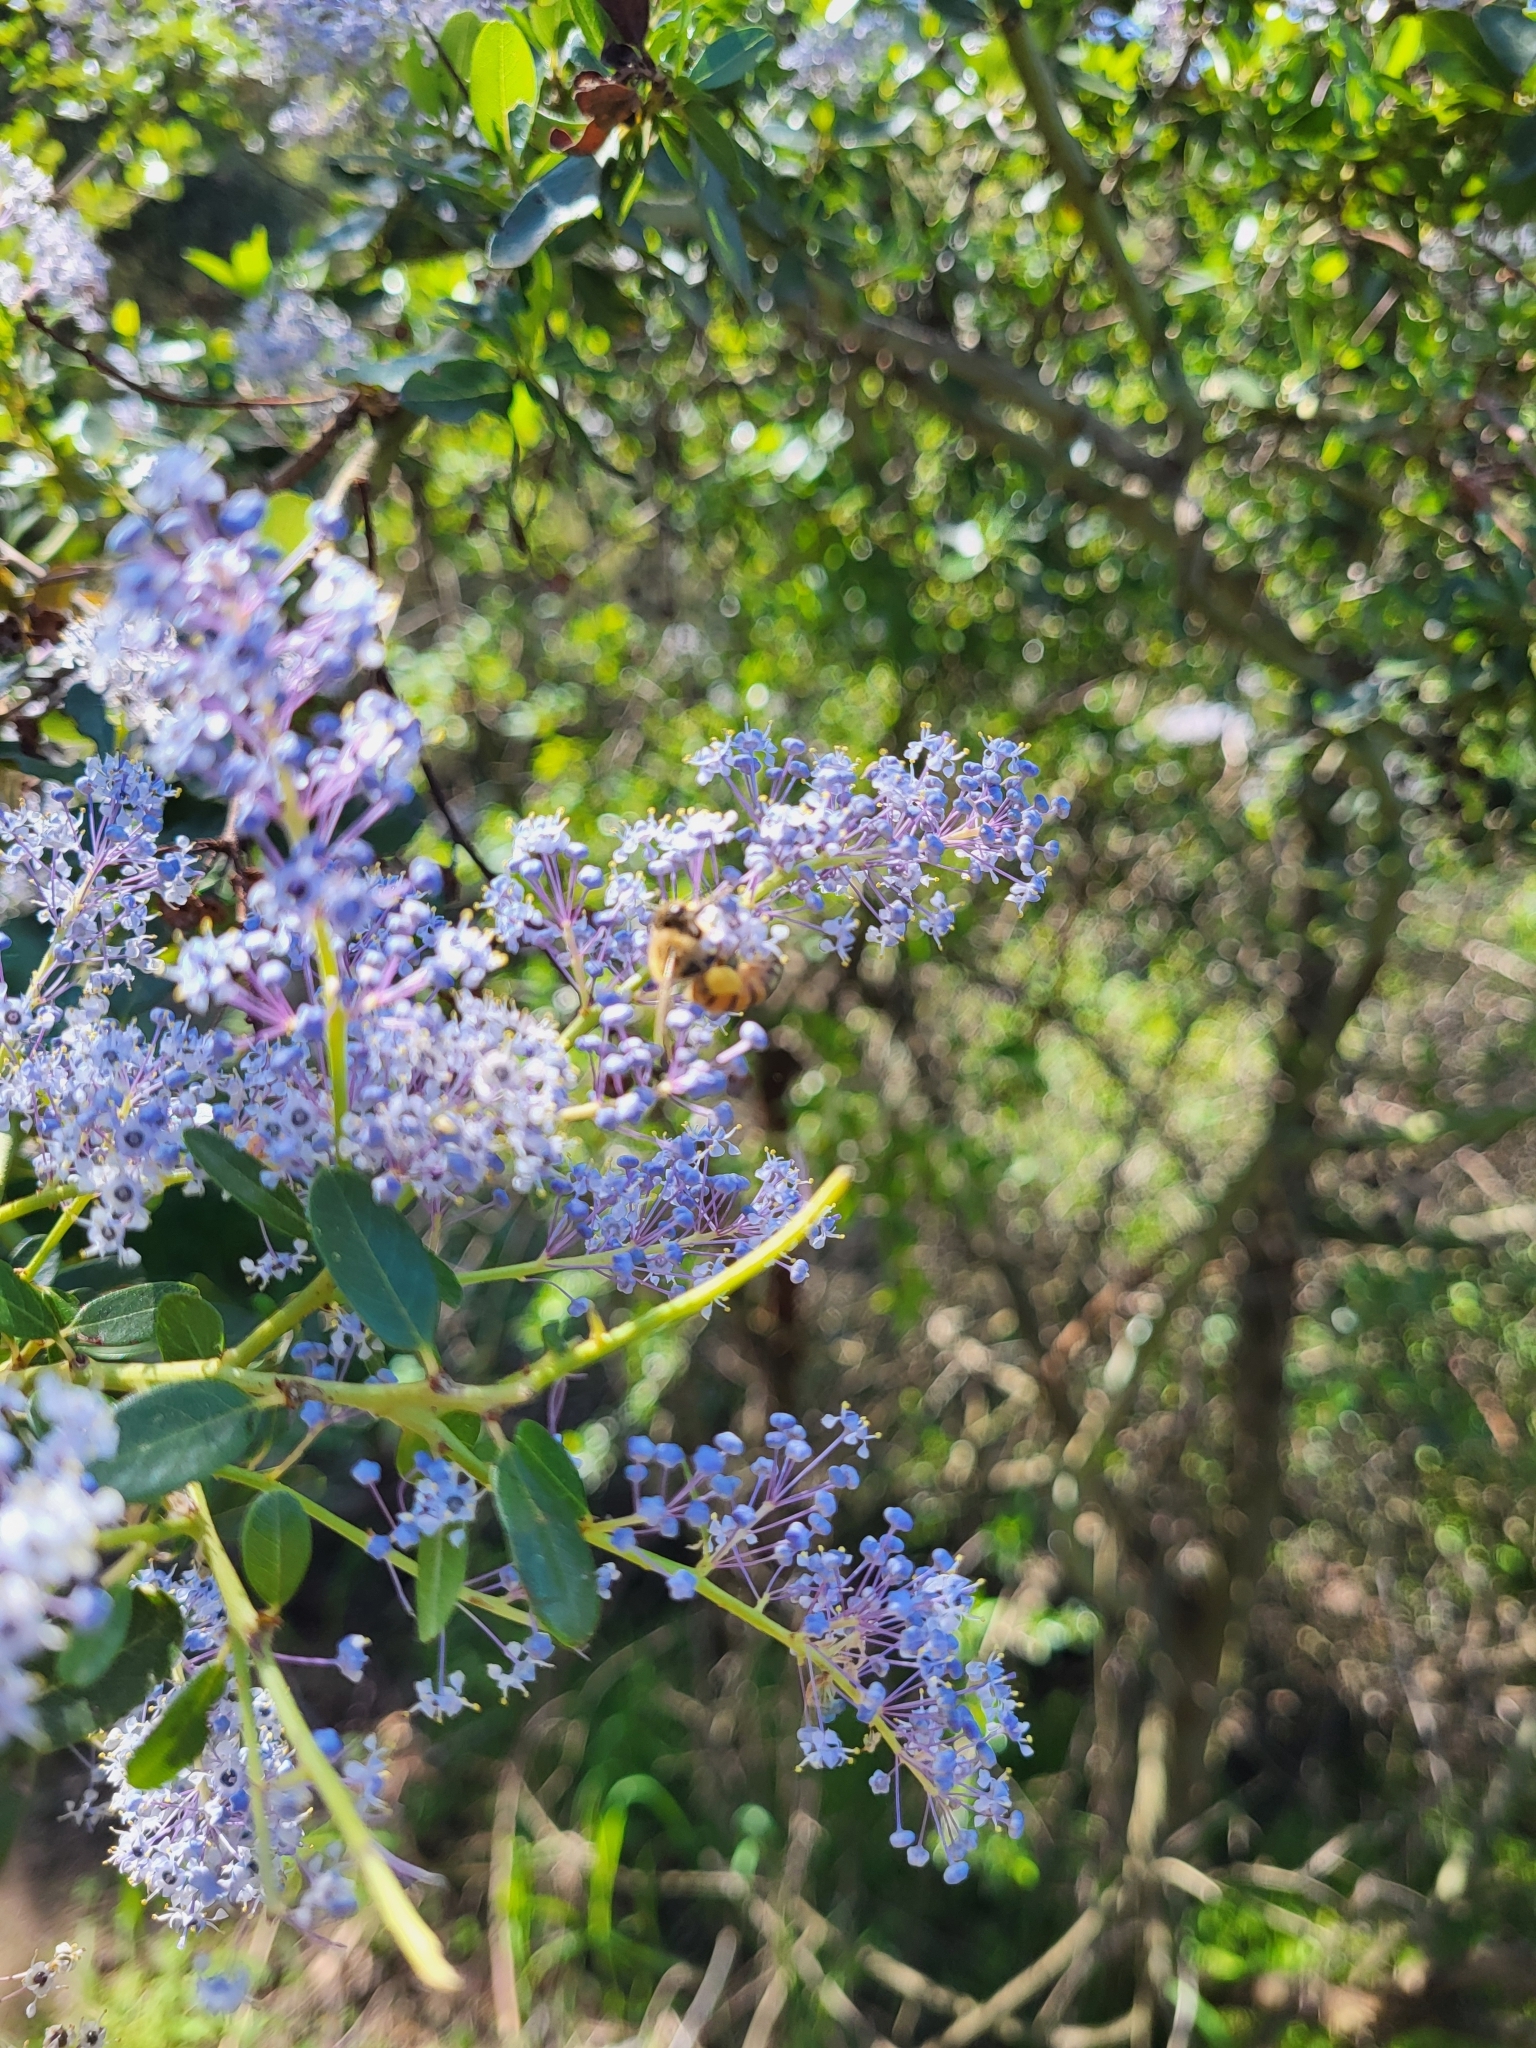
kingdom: Plantae
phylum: Tracheophyta
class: Magnoliopsida
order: Rosales
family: Rhamnaceae
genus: Ceanothus
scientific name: Ceanothus leucodermis
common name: Chaparral whitethorn
